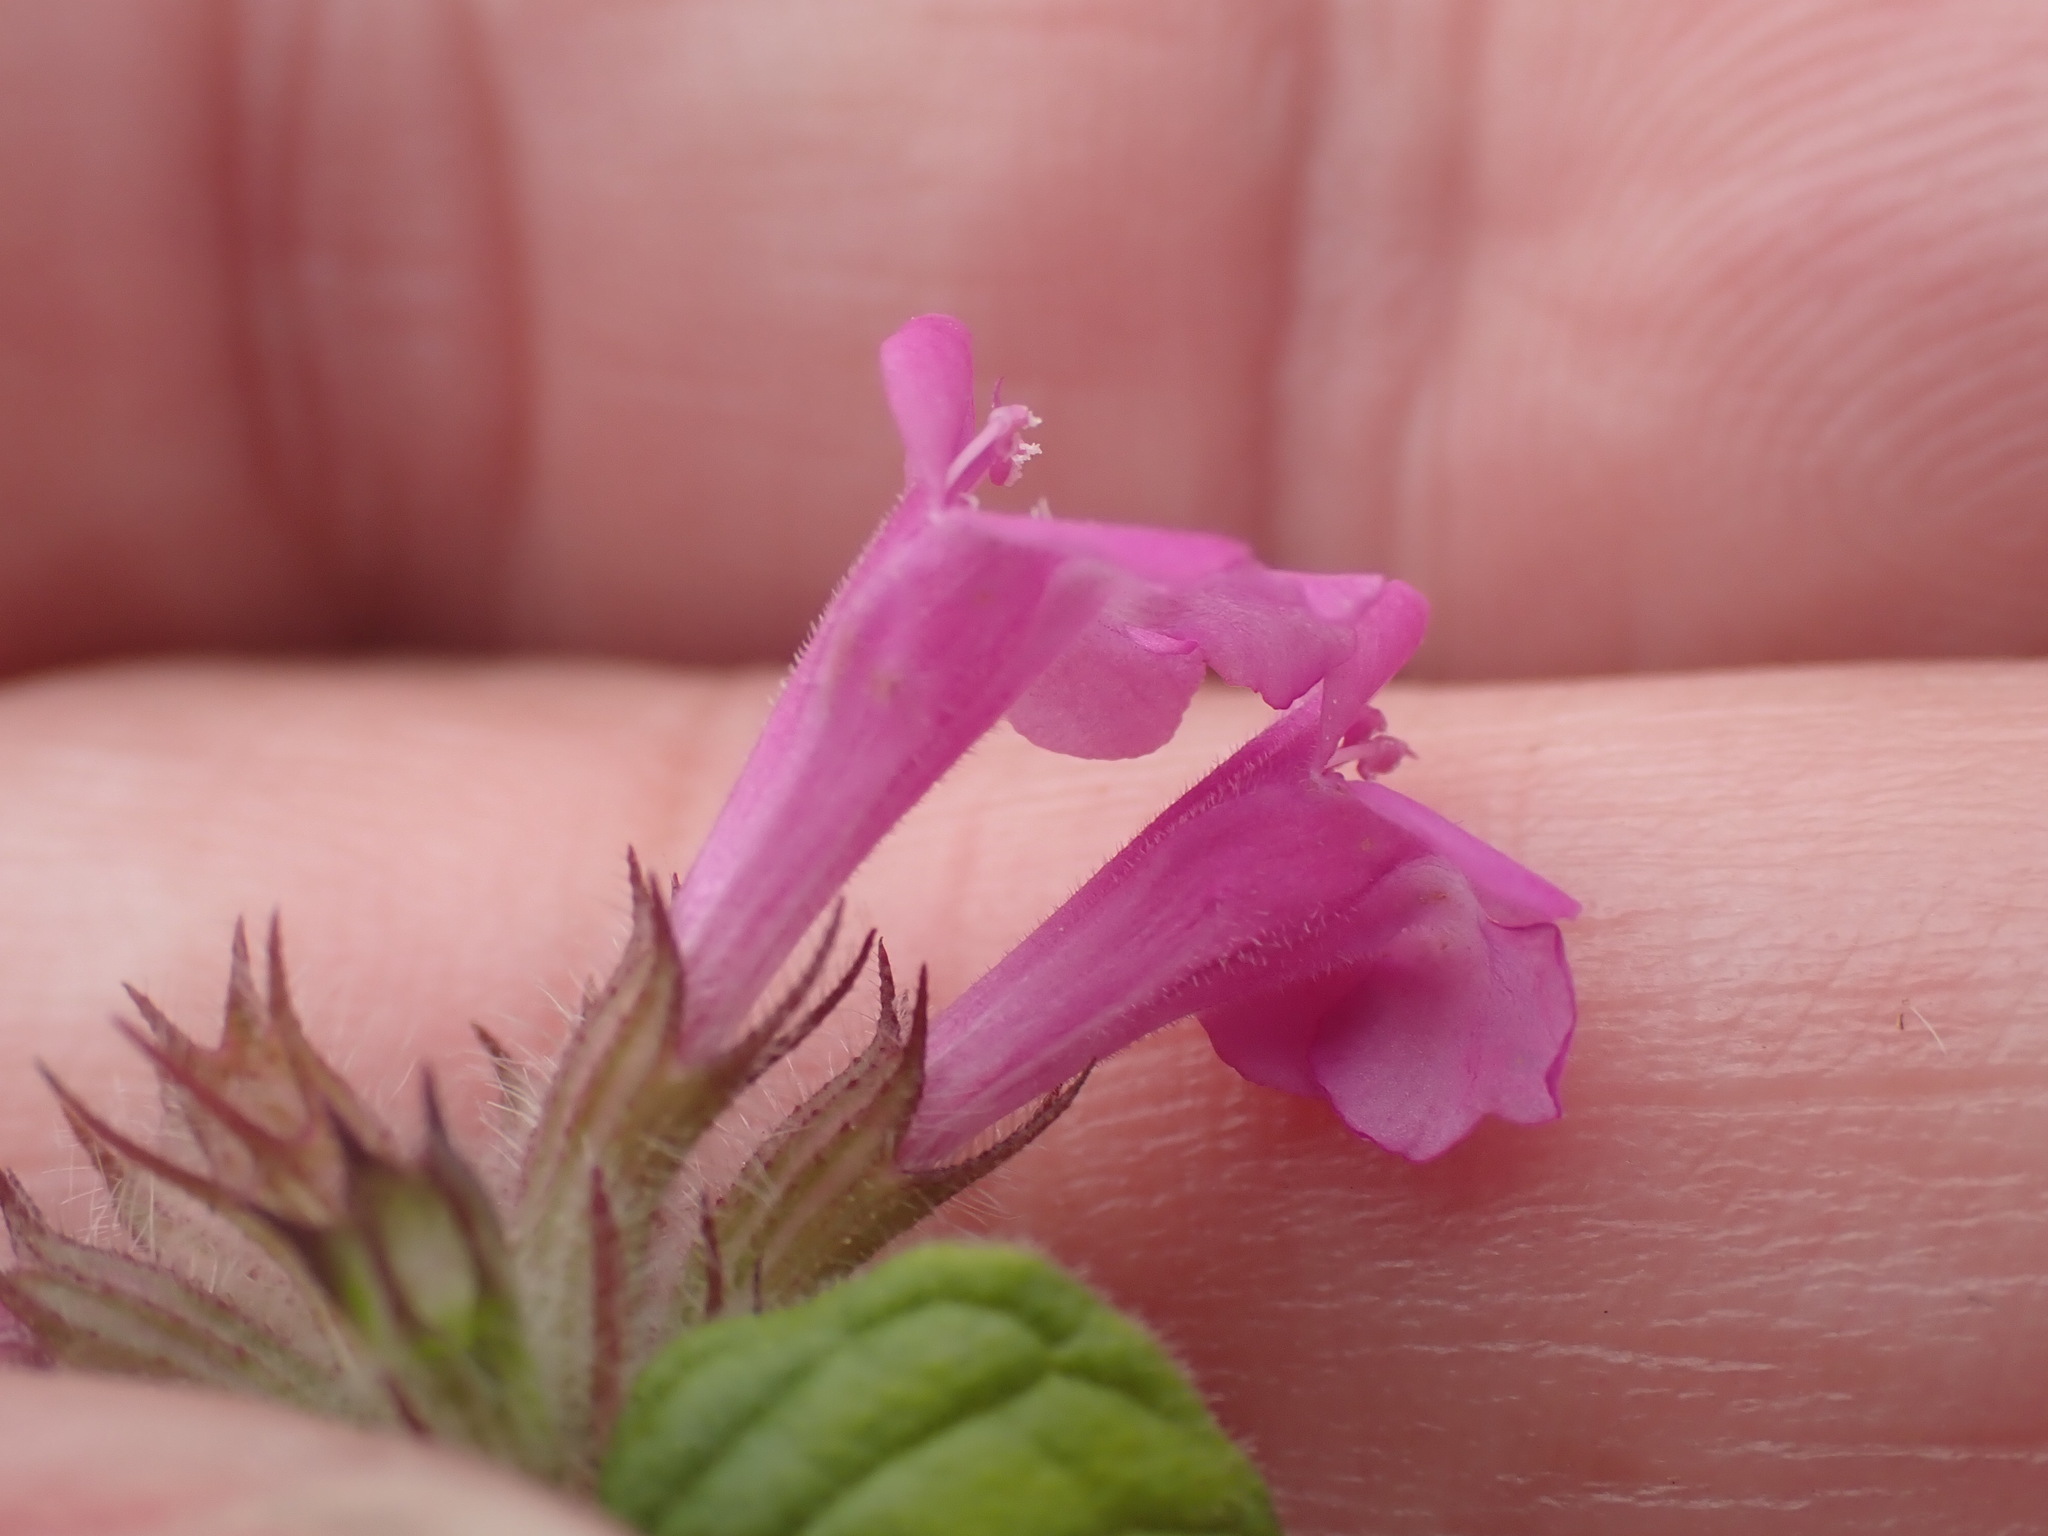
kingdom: Plantae
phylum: Tracheophyta
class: Magnoliopsida
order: Lamiales
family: Lamiaceae
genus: Clinopodium
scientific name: Clinopodium vulgare
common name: Wild basil
